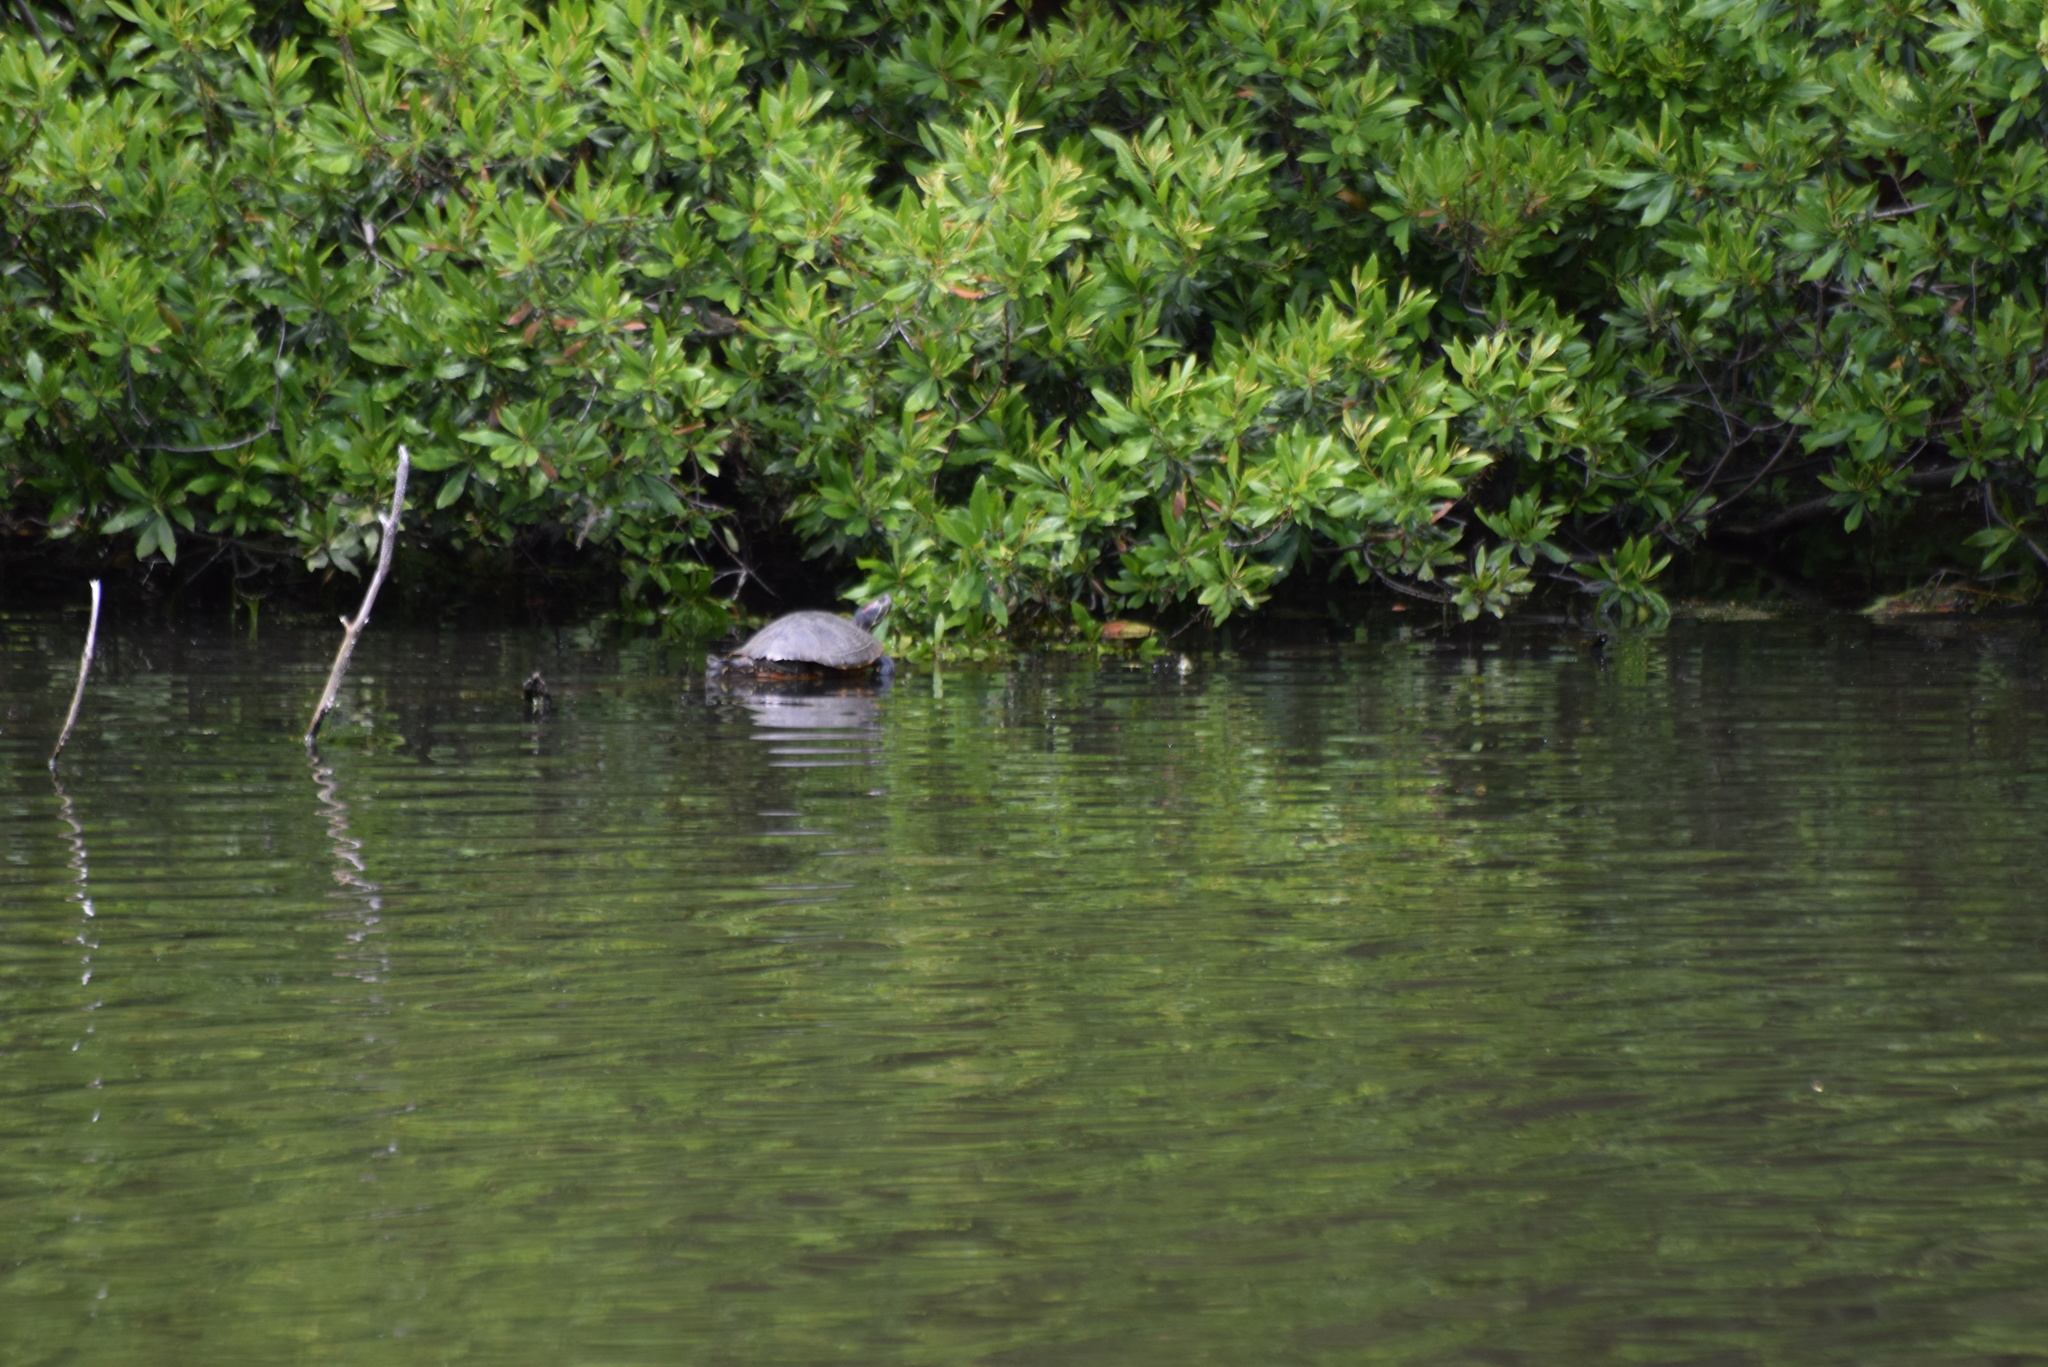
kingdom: Animalia
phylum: Chordata
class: Testudines
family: Emydidae
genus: Trachemys
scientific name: Trachemys scripta
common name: Slider
